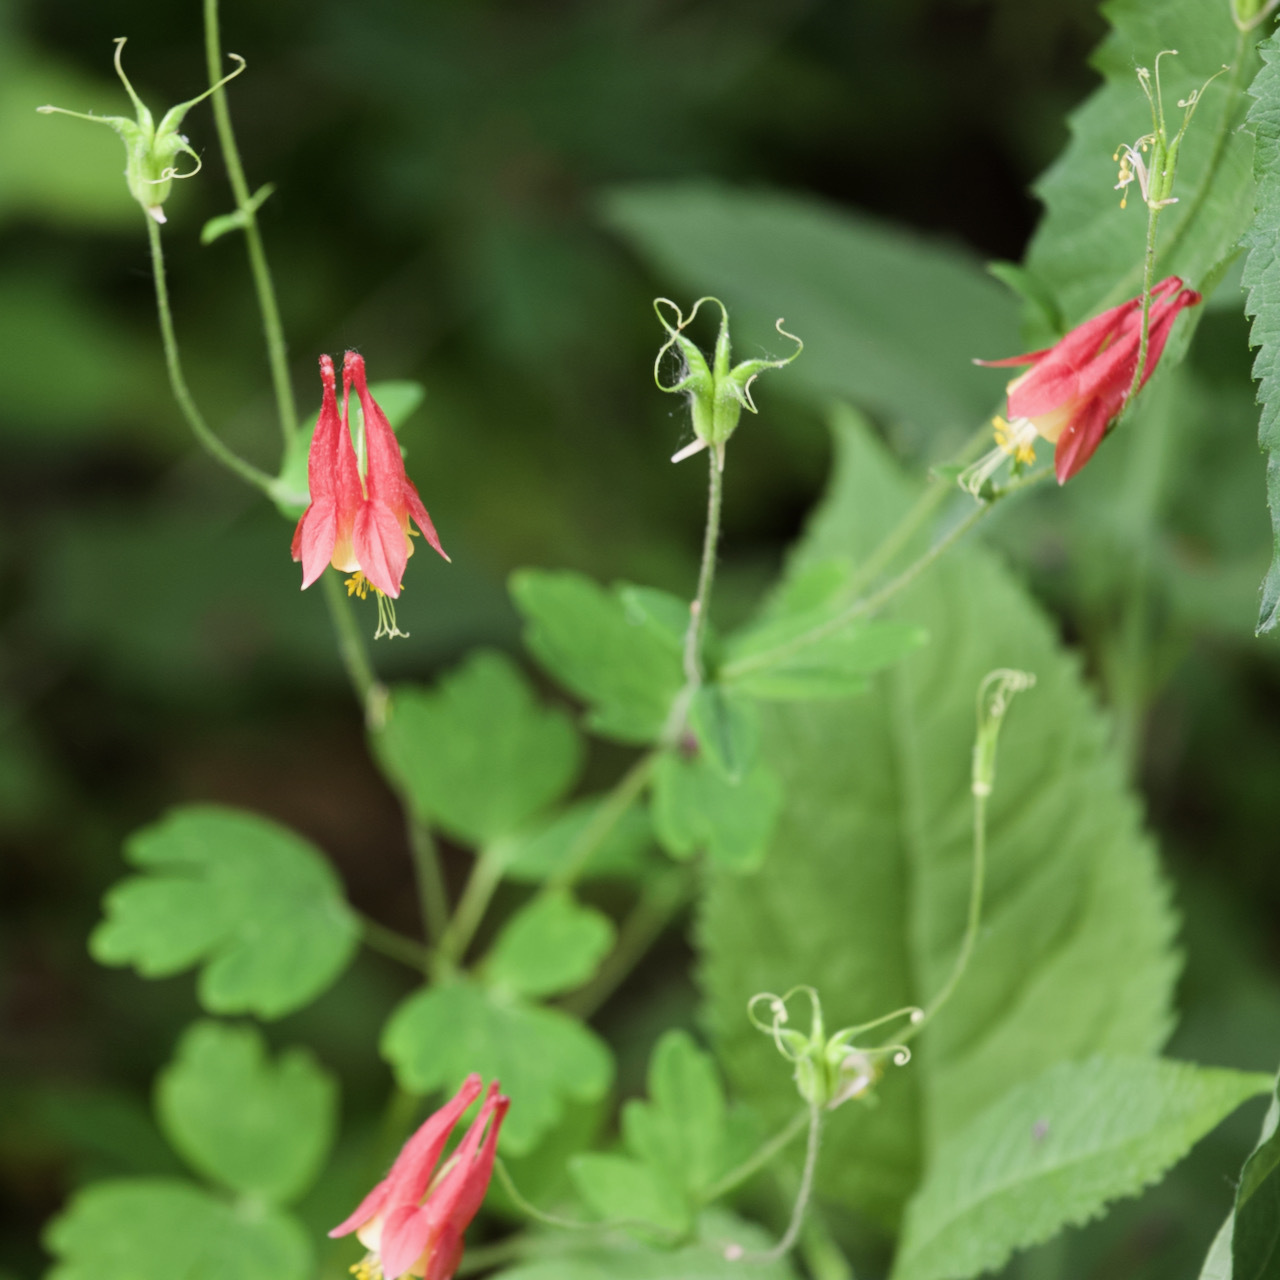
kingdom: Plantae
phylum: Tracheophyta
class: Magnoliopsida
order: Ranunculales
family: Ranunculaceae
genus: Aquilegia
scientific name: Aquilegia canadensis
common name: American columbine
